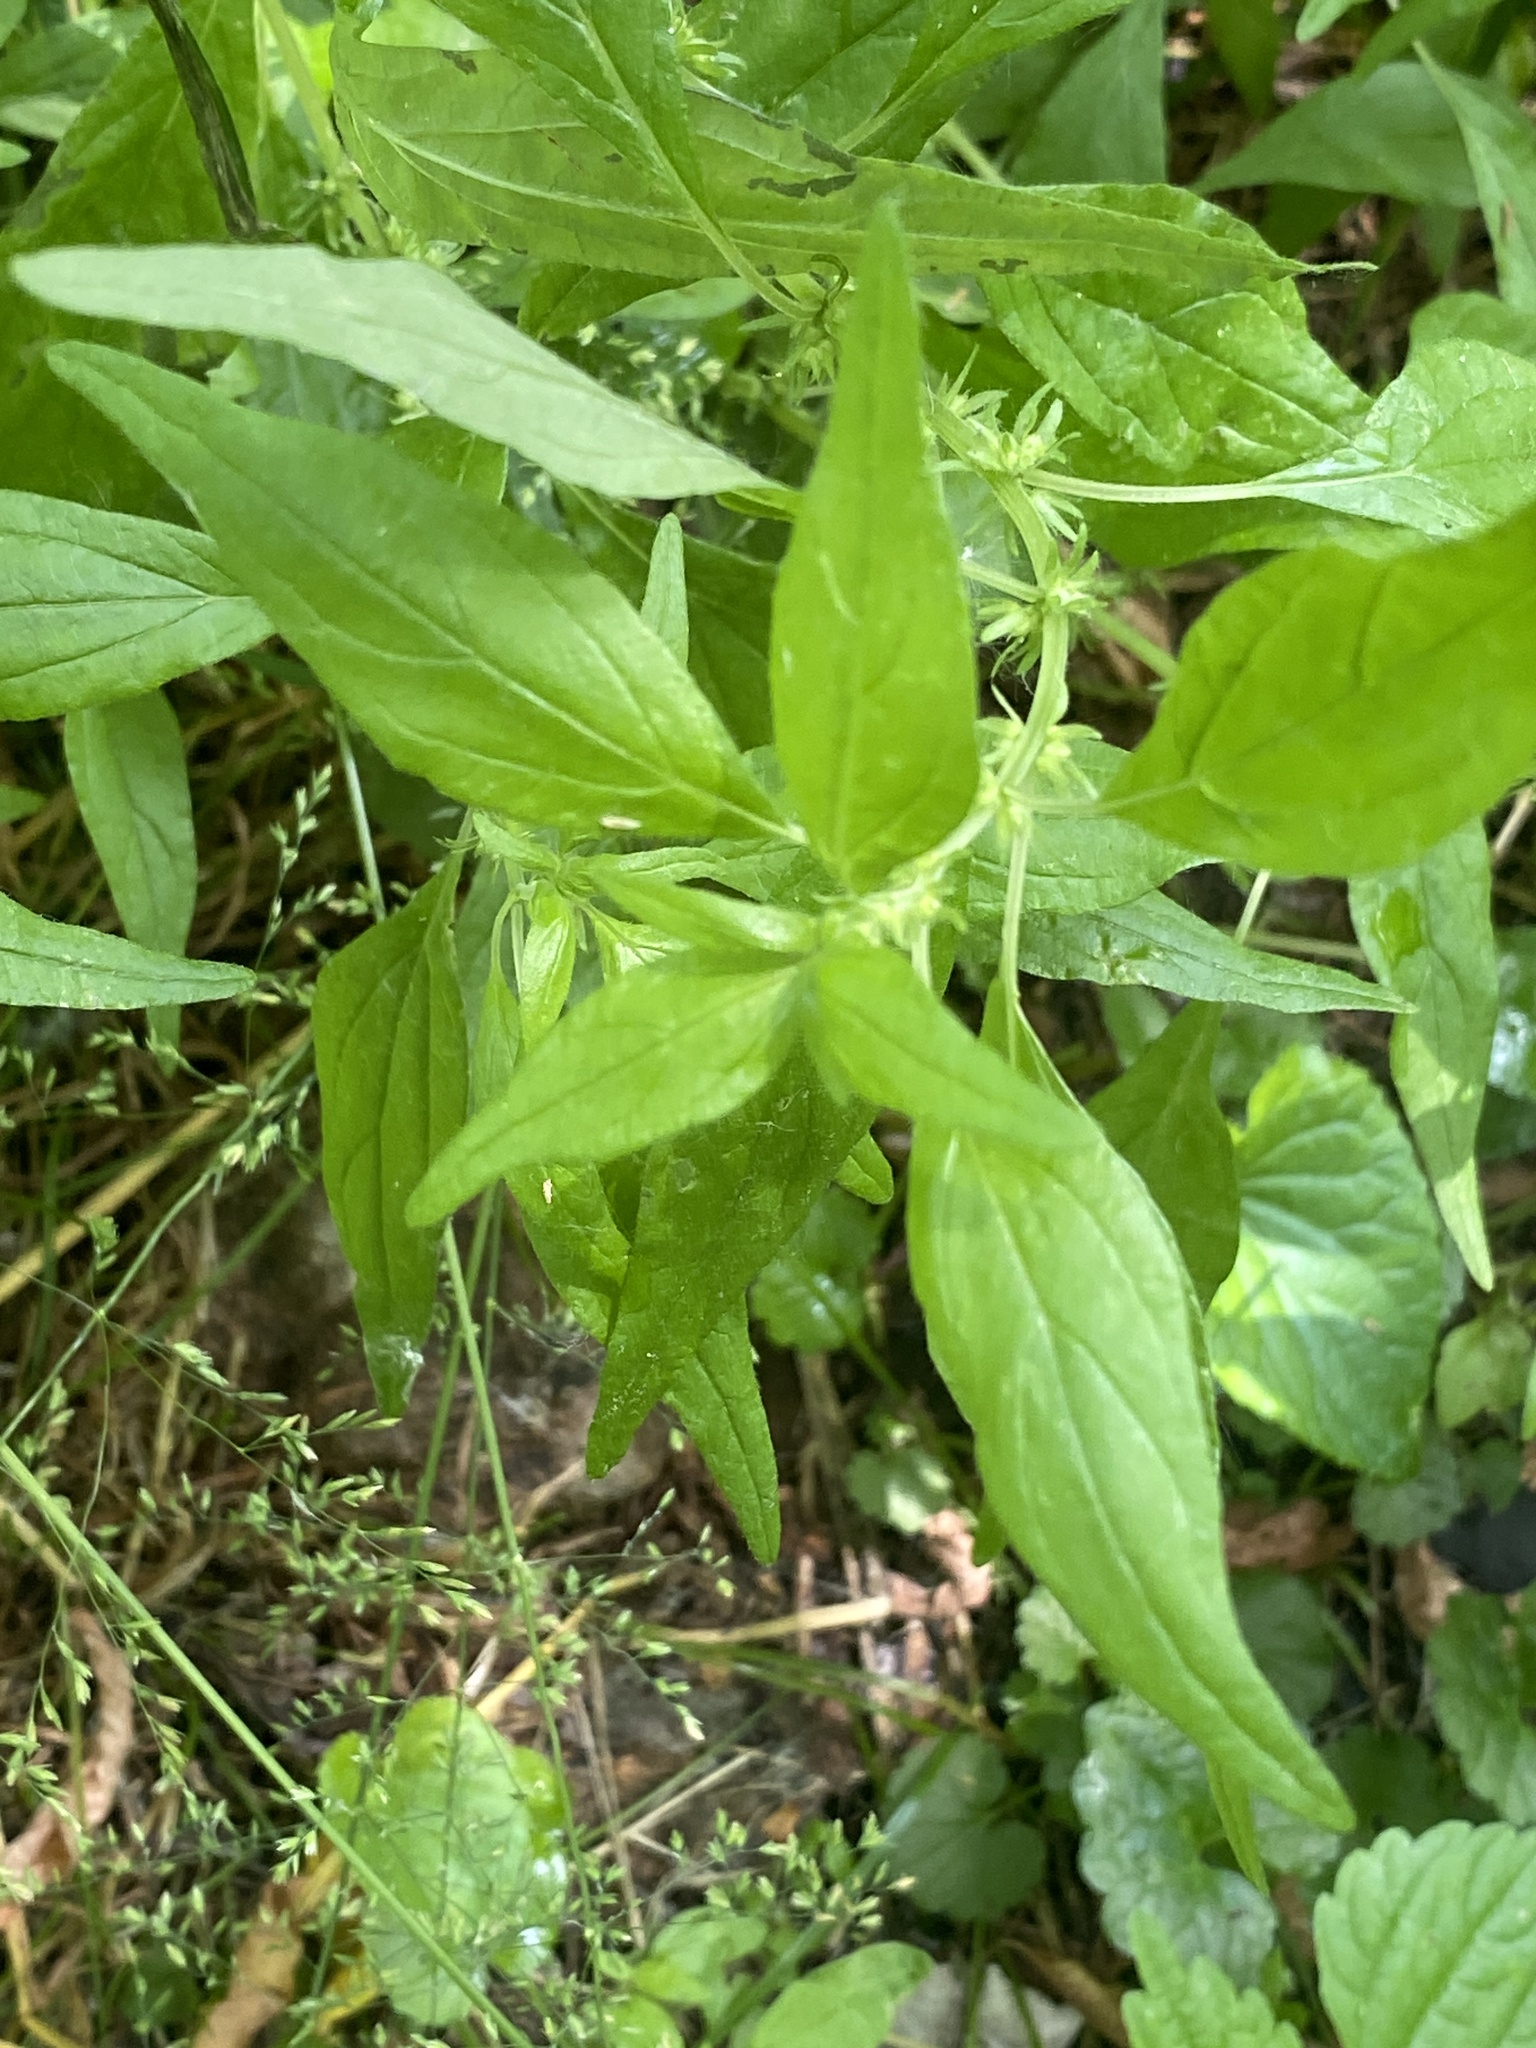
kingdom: Plantae
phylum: Tracheophyta
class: Magnoliopsida
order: Rosales
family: Urticaceae
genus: Parietaria
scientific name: Parietaria pensylvanica
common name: Pennsylvania pellitory
